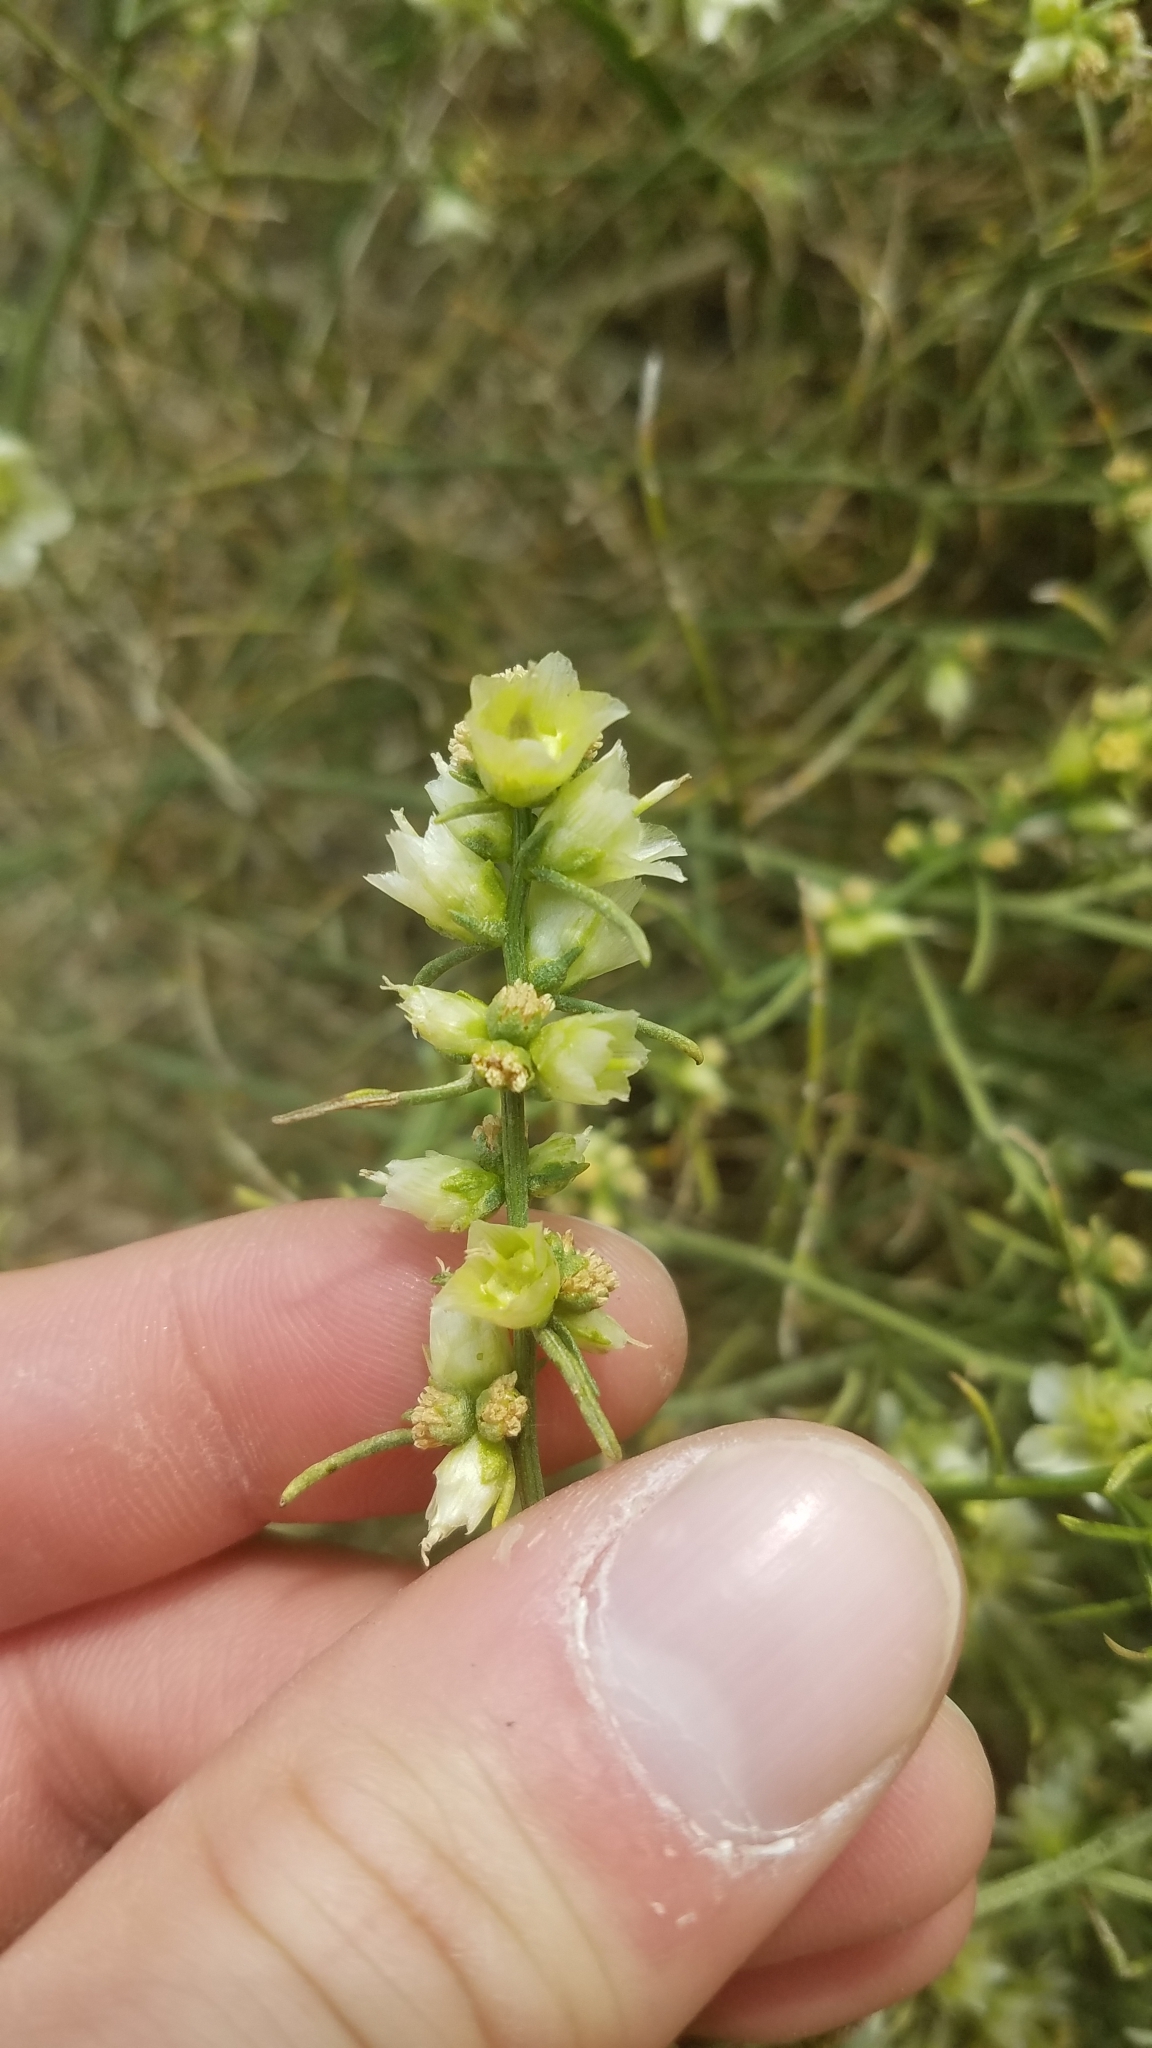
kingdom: Plantae
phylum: Tracheophyta
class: Magnoliopsida
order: Asterales
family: Asteraceae
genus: Ambrosia
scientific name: Ambrosia salsola
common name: Burrobrush
